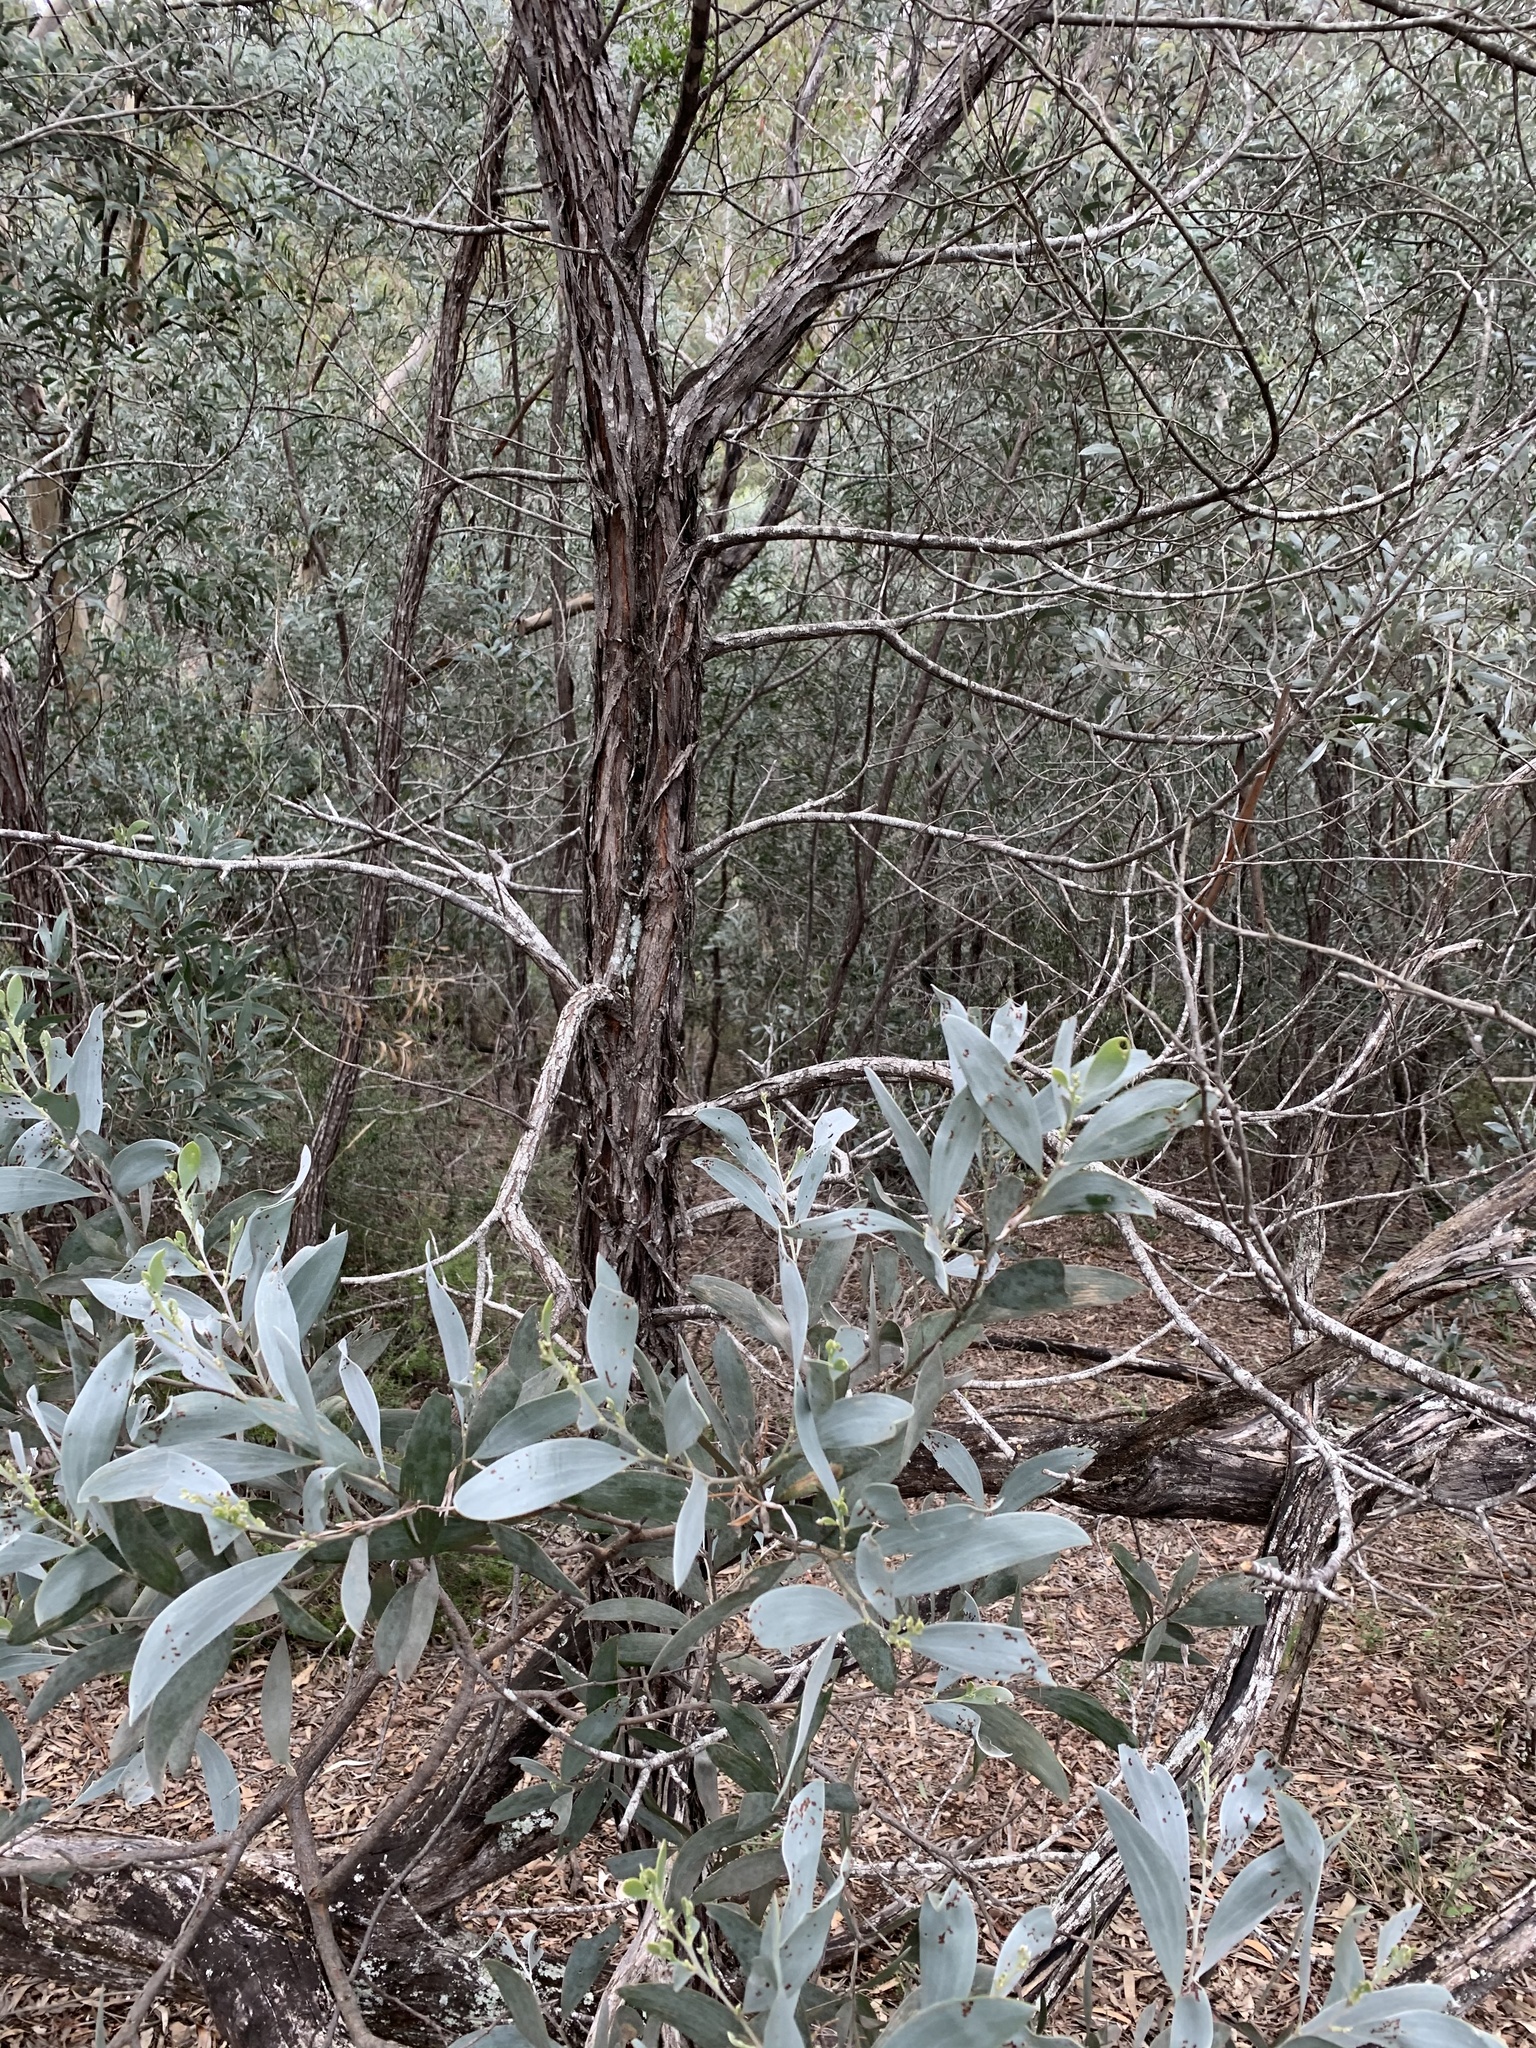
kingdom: Plantae
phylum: Tracheophyta
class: Magnoliopsida
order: Fabales
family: Fabaceae
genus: Acacia
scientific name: Acacia binervia
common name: Coast myall
